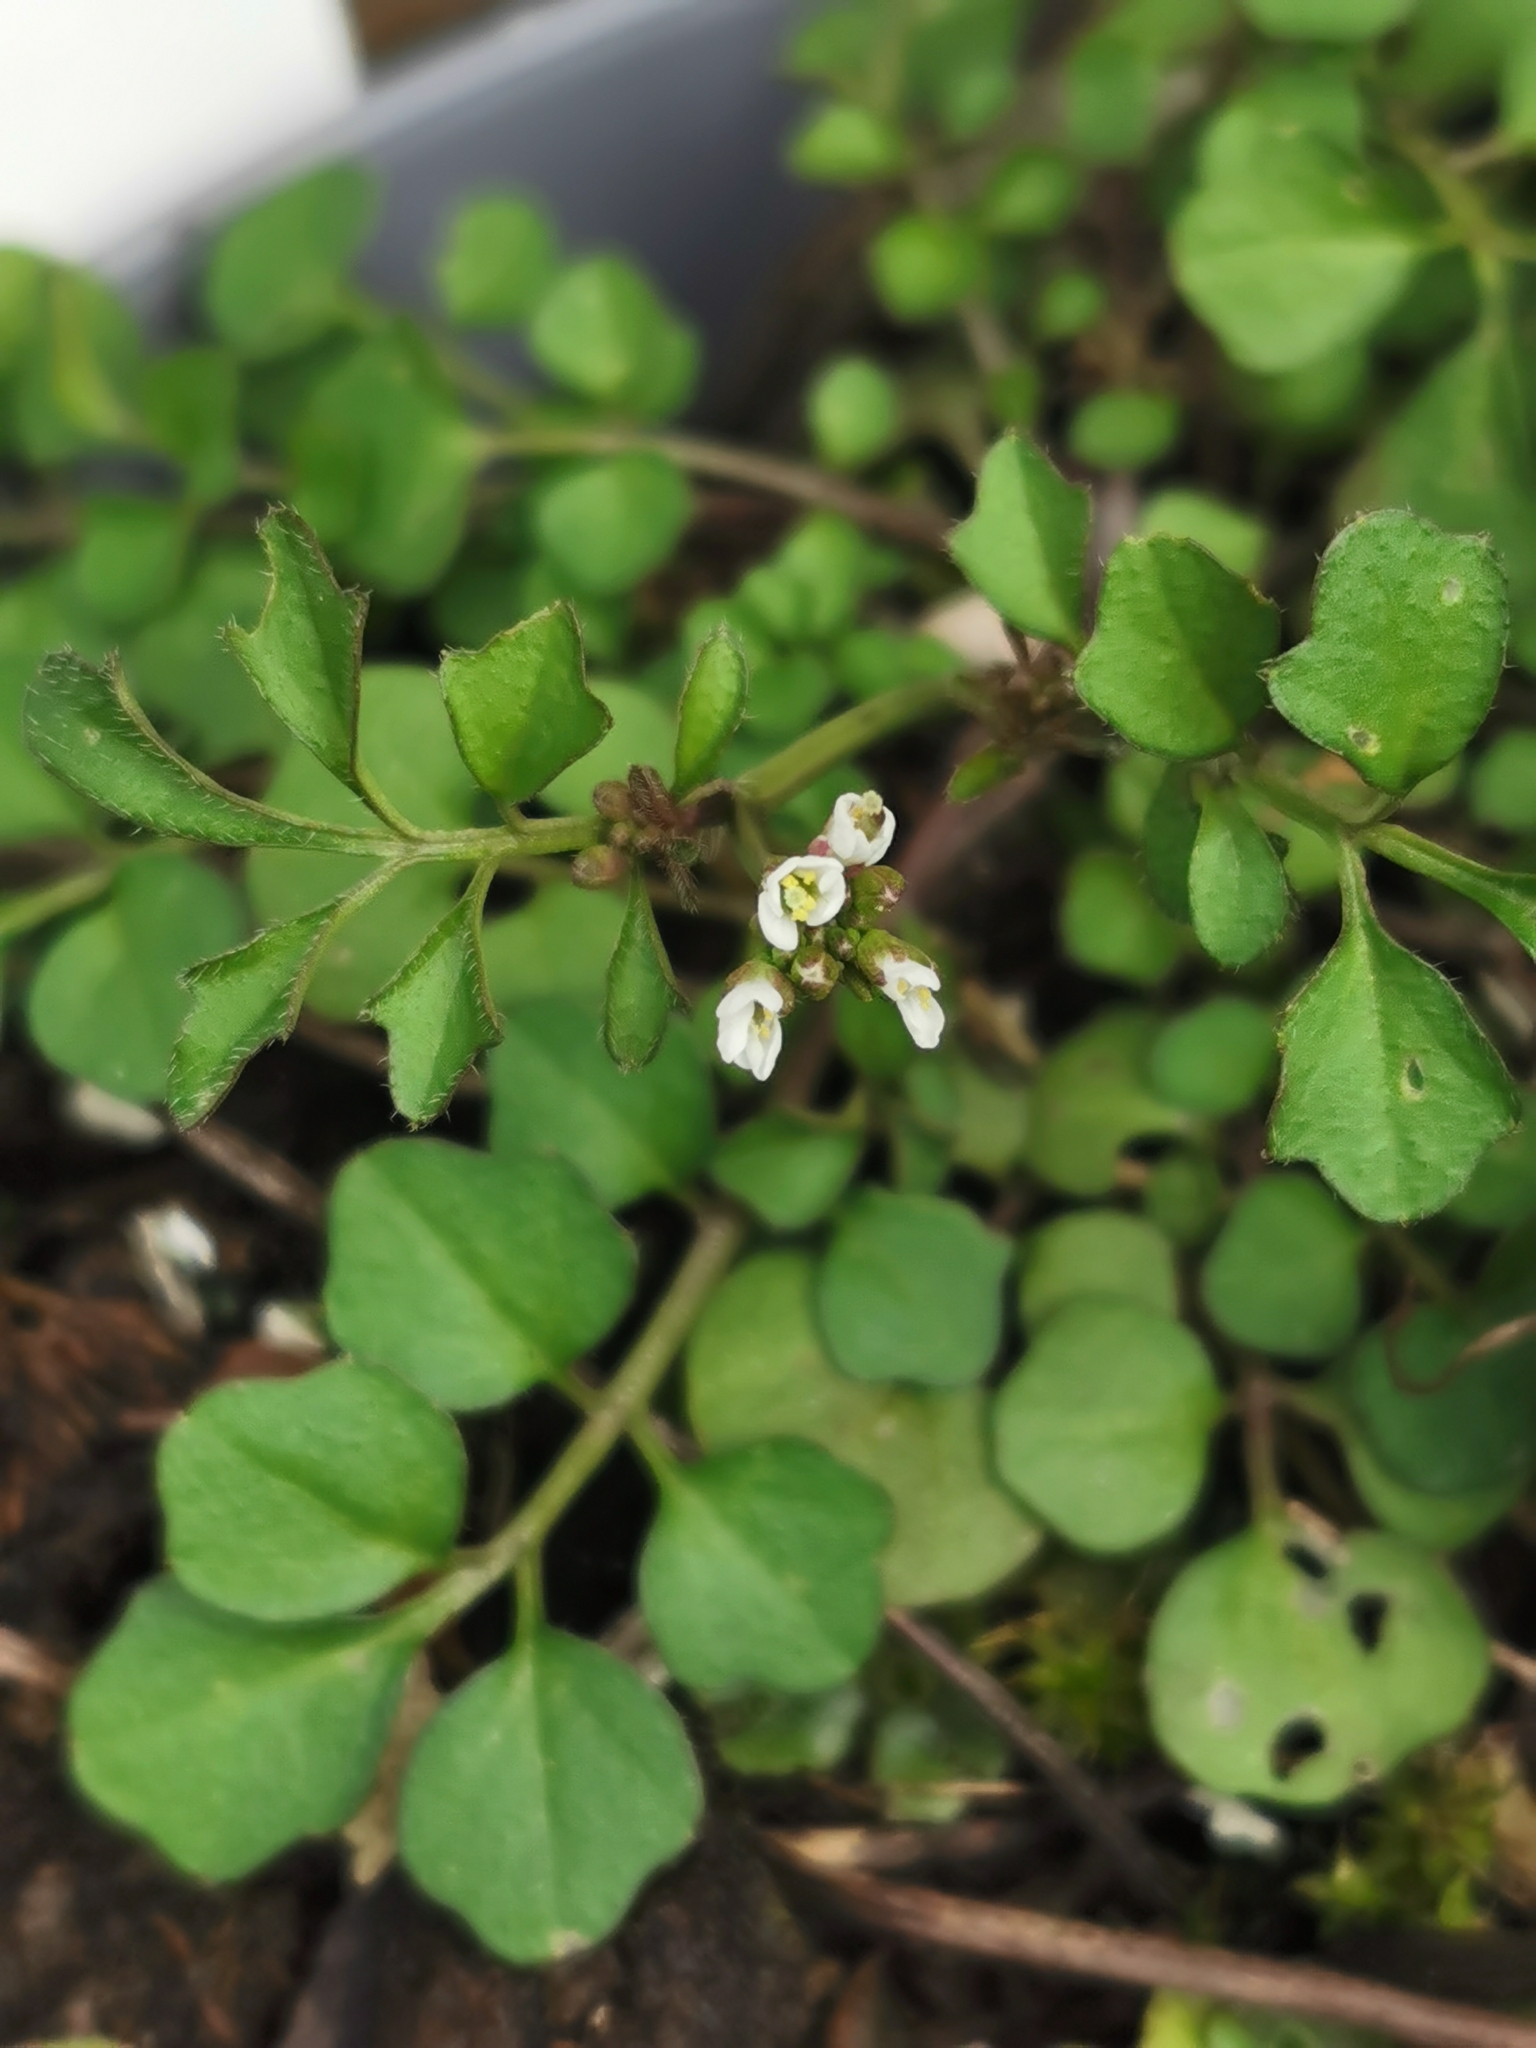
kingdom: Plantae
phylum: Tracheophyta
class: Magnoliopsida
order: Brassicales
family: Brassicaceae
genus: Cardamine
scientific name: Cardamine hirsuta
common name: Hairy bittercress
